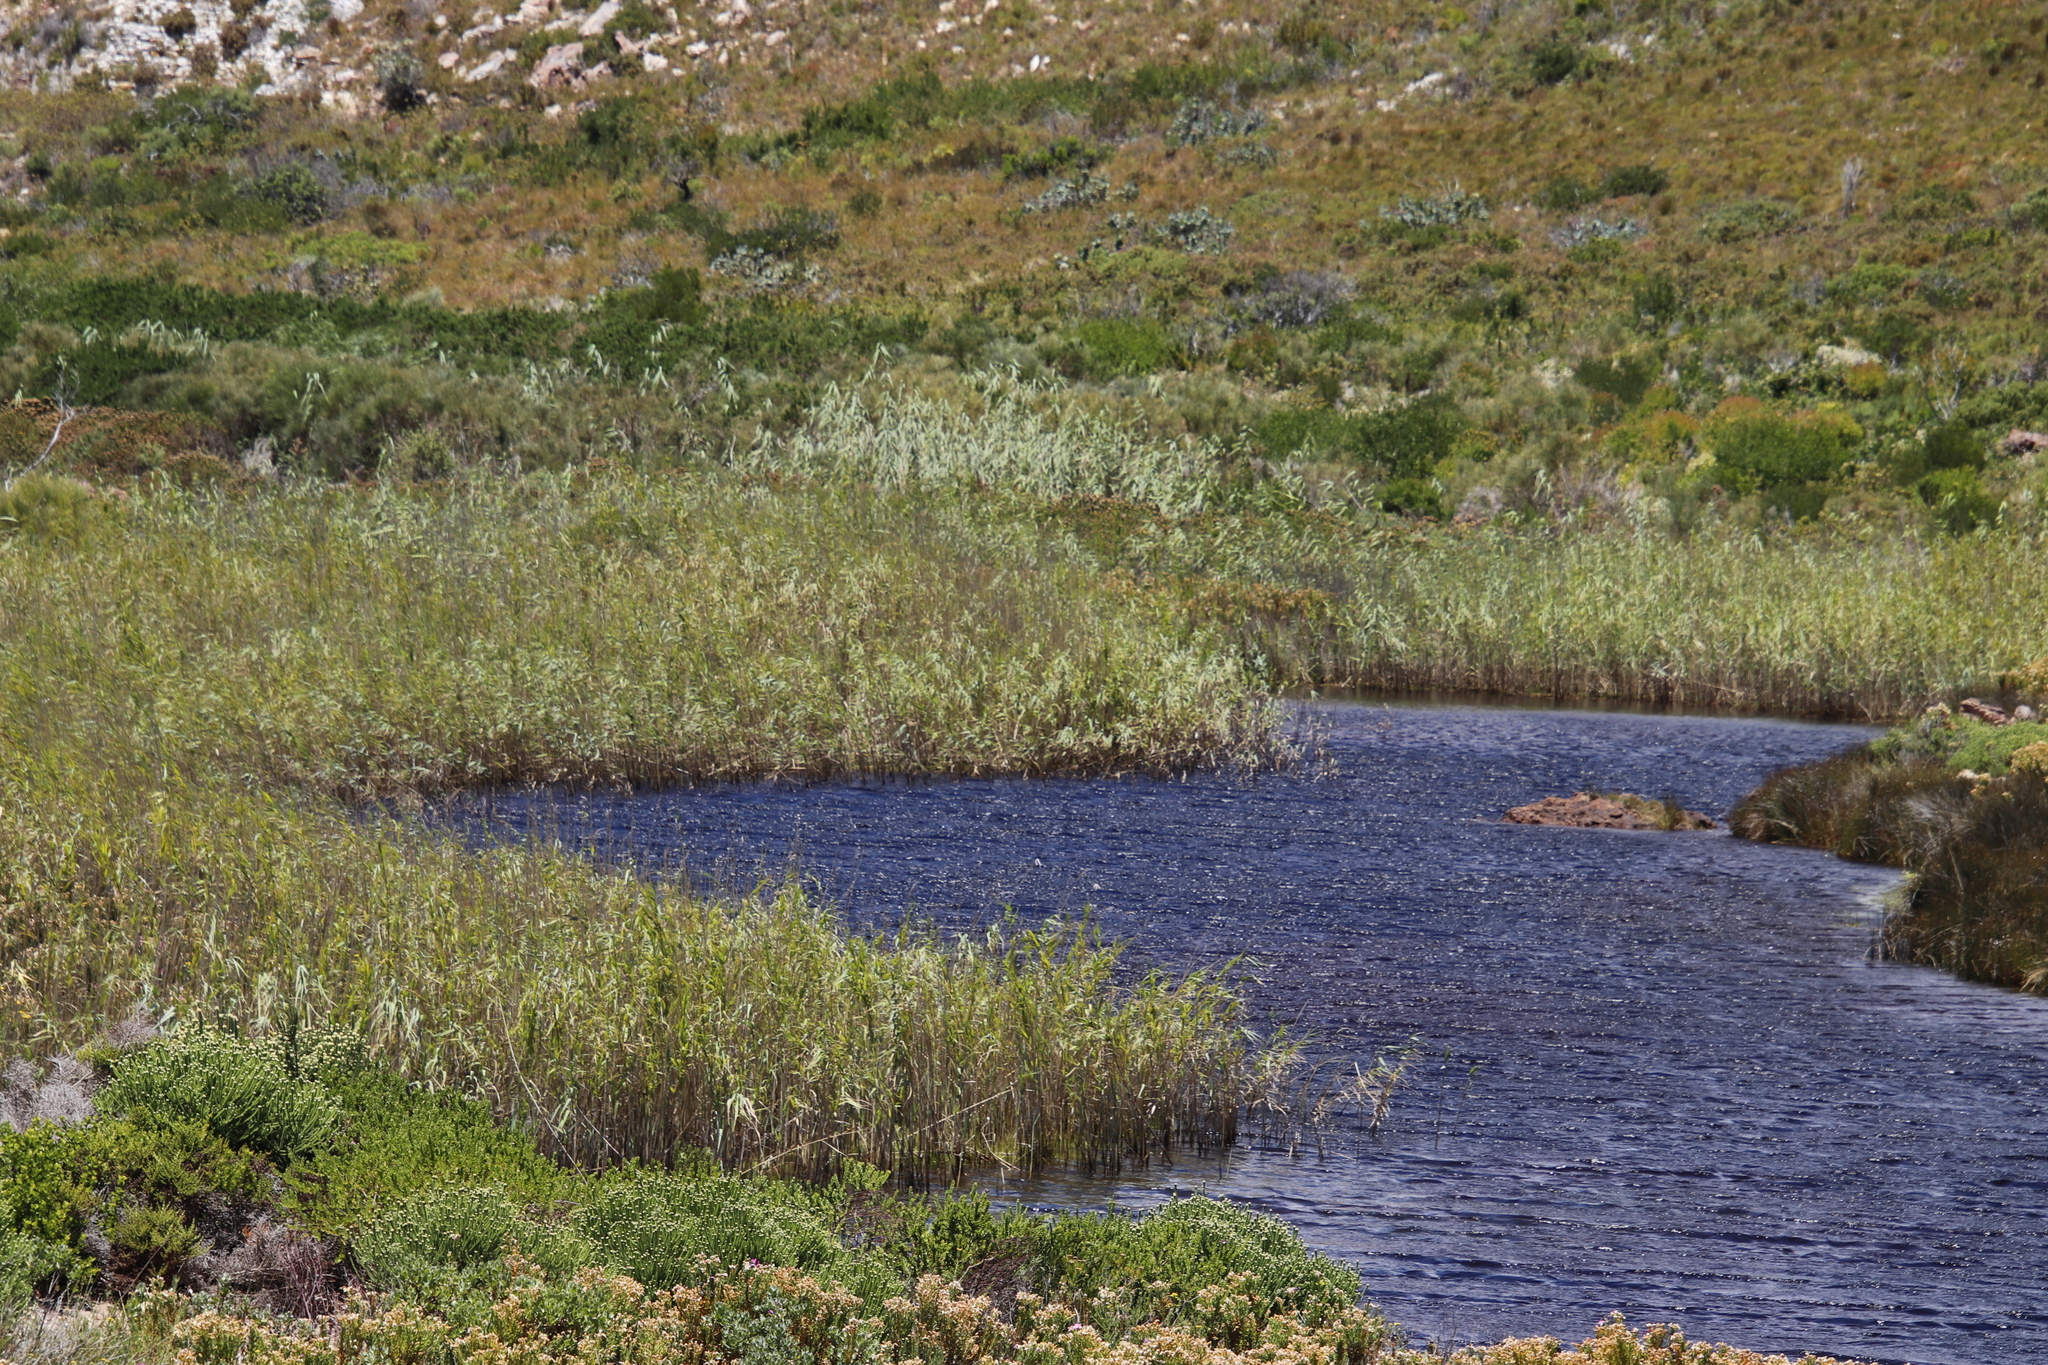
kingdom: Plantae
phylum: Tracheophyta
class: Liliopsida
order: Poales
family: Poaceae
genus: Phragmites
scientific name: Phragmites australis
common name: Common reed
